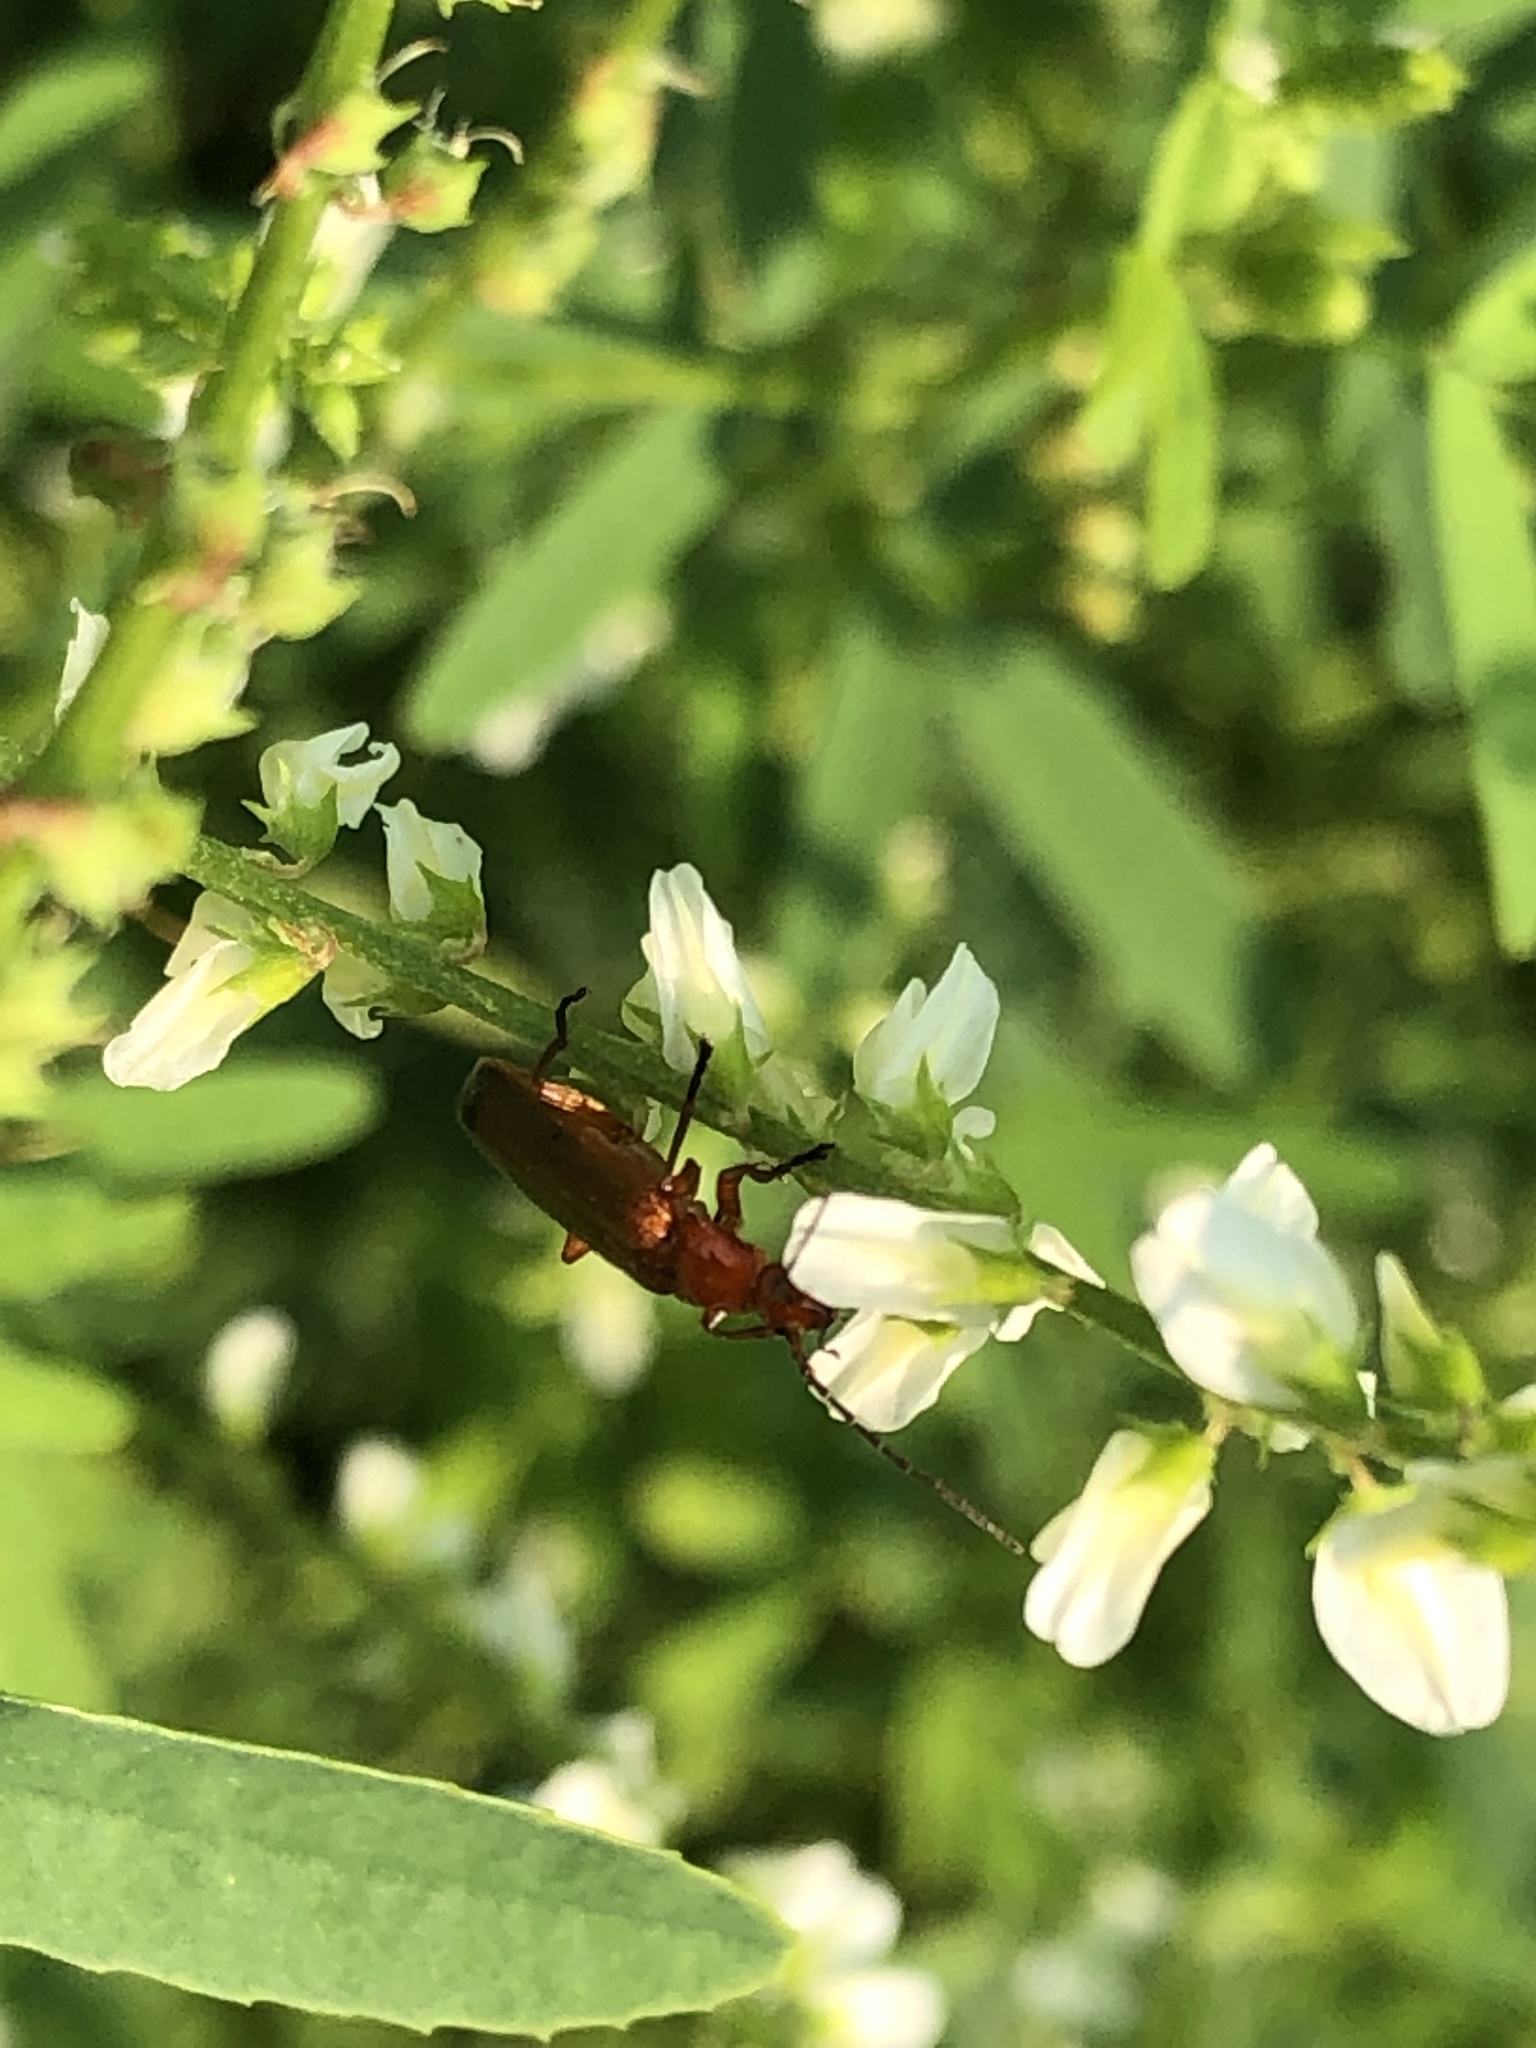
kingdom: Animalia
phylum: Arthropoda
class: Insecta
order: Coleoptera
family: Cantharidae
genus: Rhagonycha
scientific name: Rhagonycha fulva
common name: Common red soldier beetle
